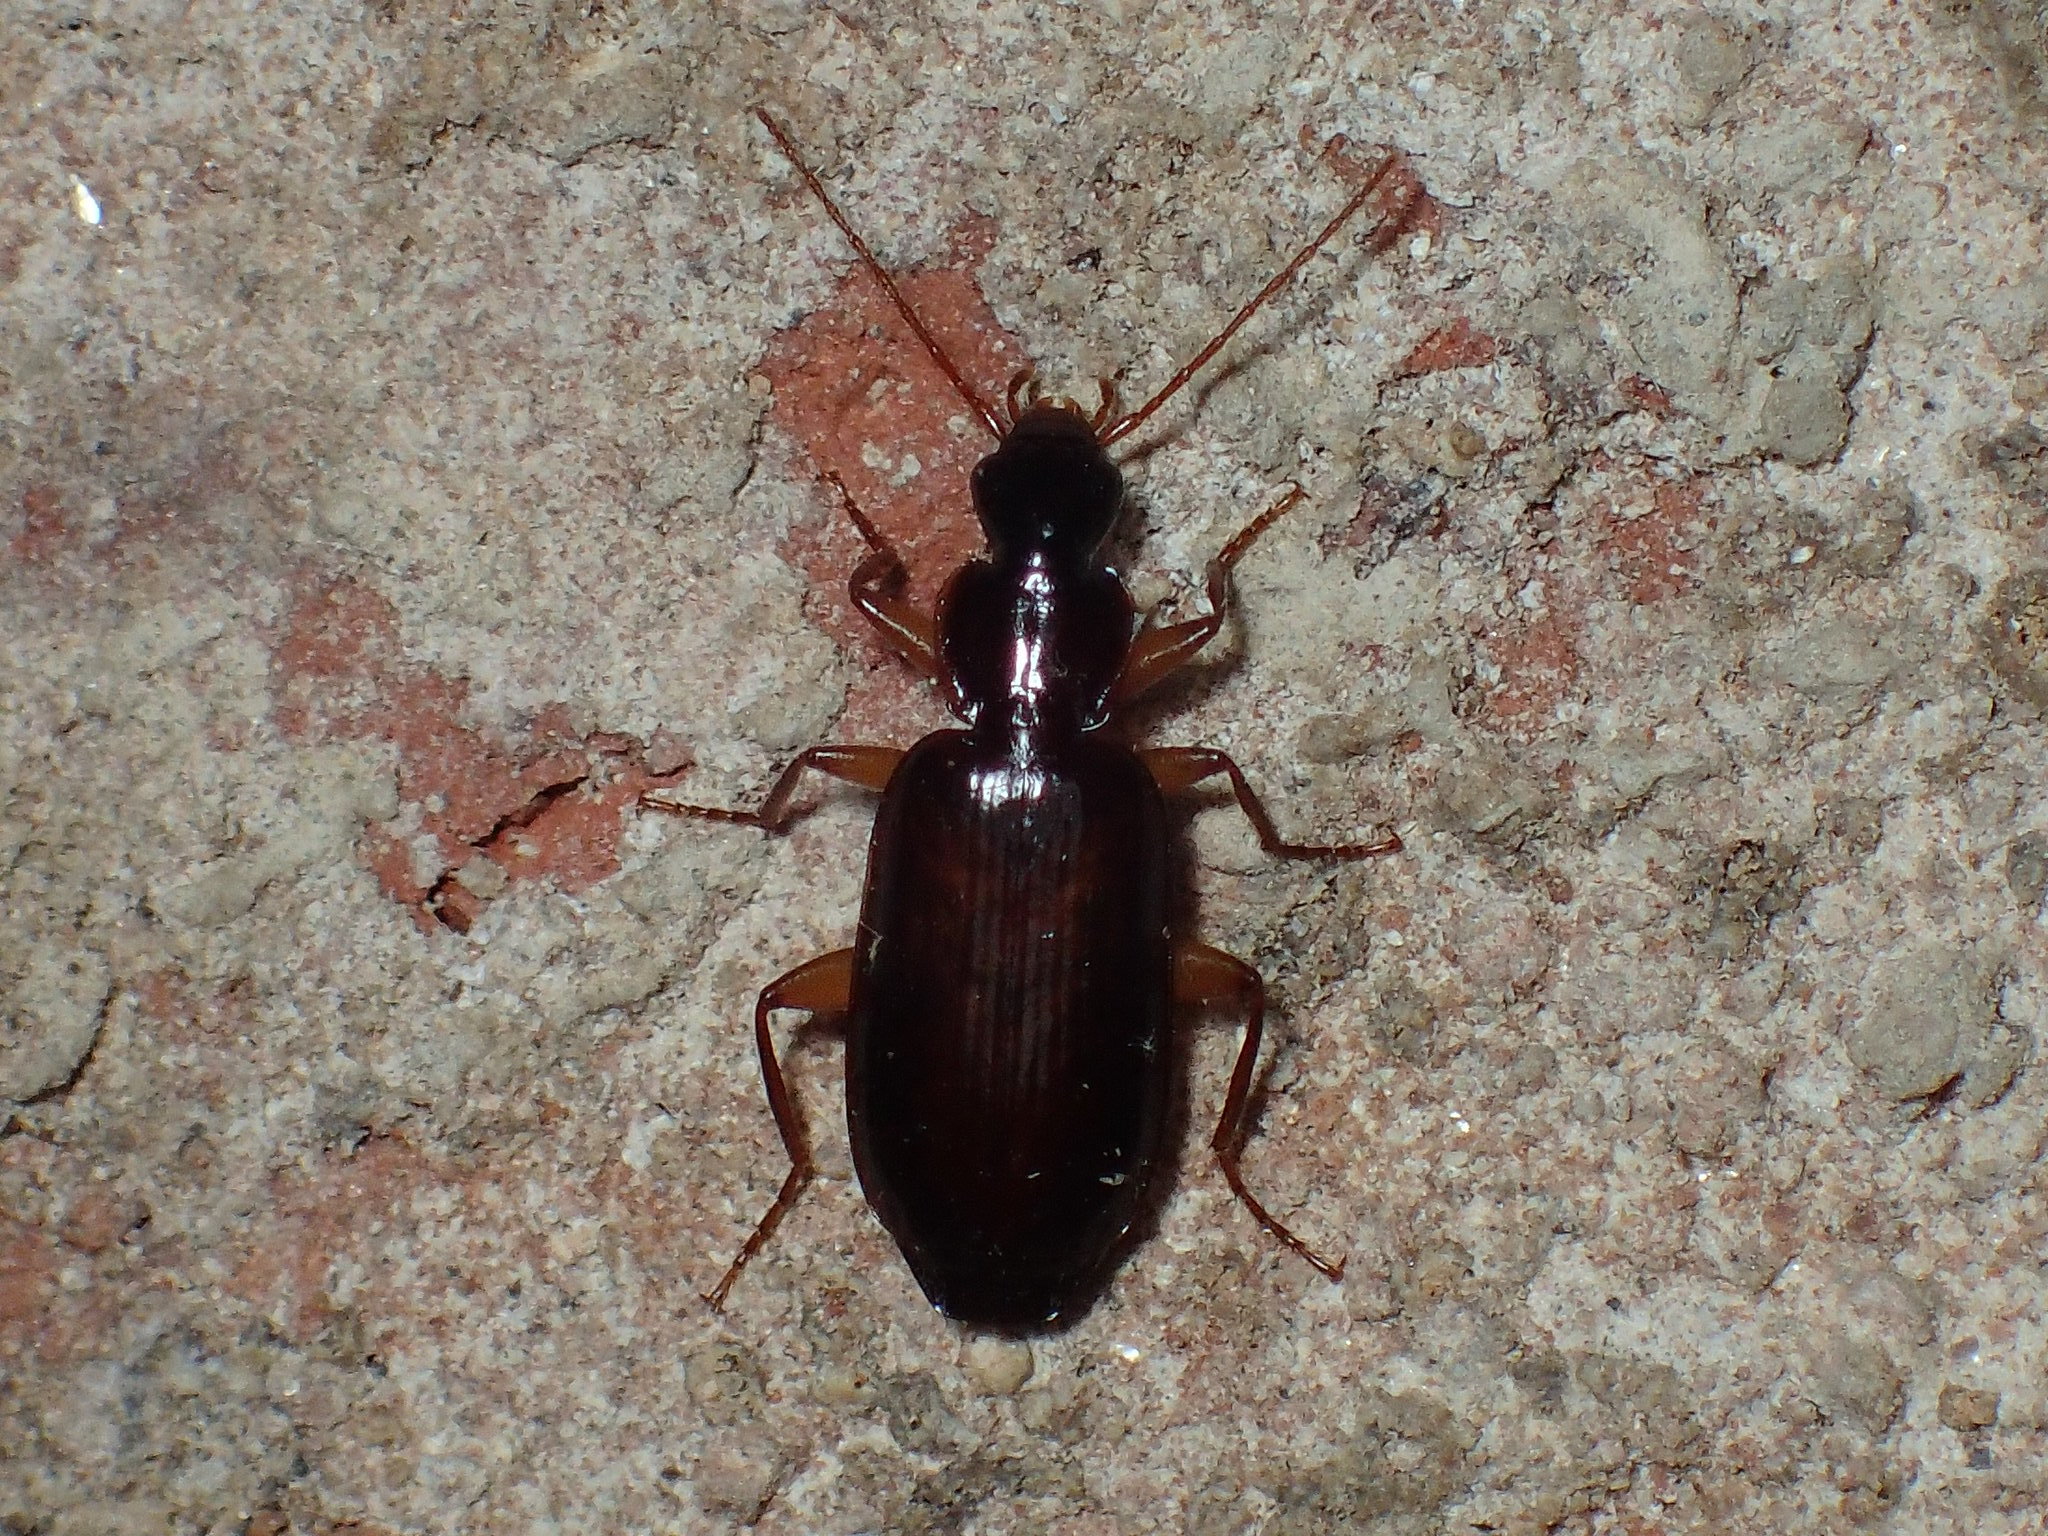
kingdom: Animalia
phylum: Arthropoda
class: Insecta
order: Coleoptera
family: Carabidae
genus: Dromius
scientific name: Dromius piceus
